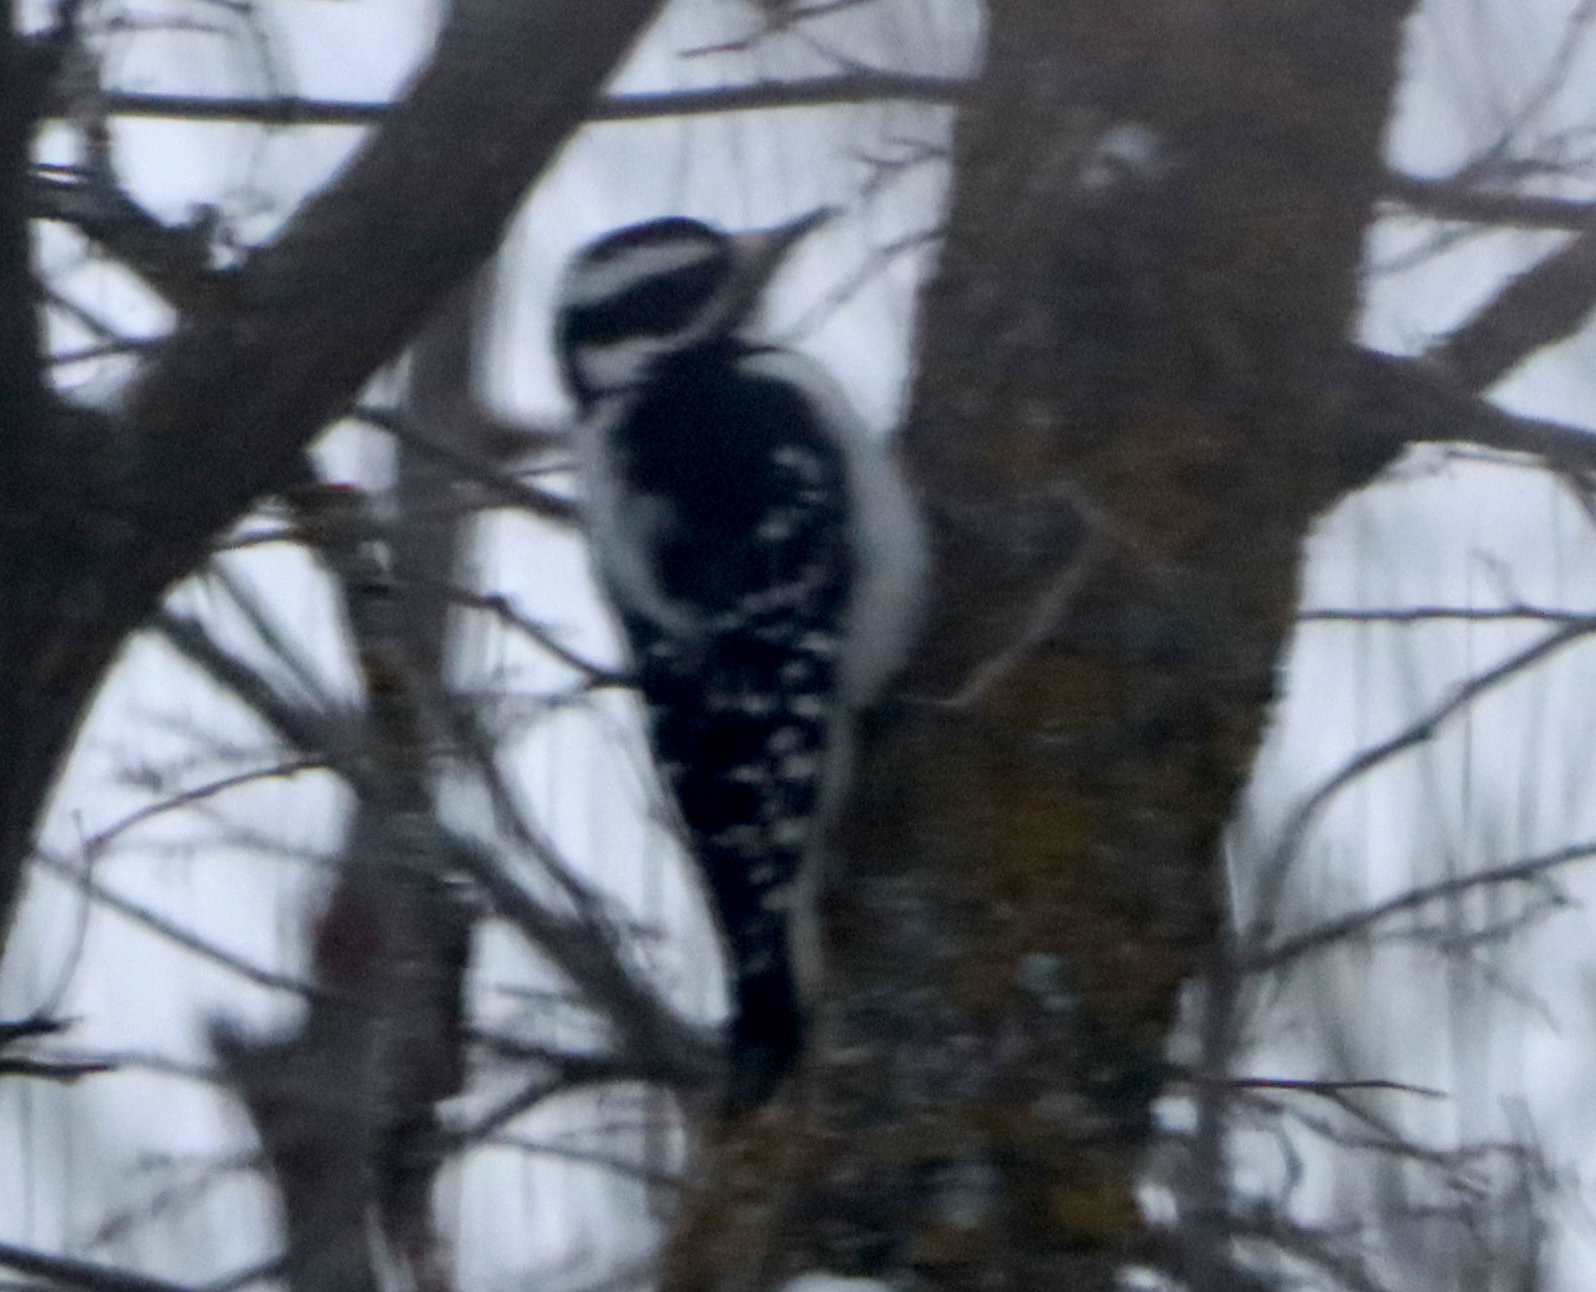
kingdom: Animalia
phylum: Chordata
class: Aves
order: Piciformes
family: Picidae
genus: Leuconotopicus
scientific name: Leuconotopicus villosus
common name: Hairy woodpecker
